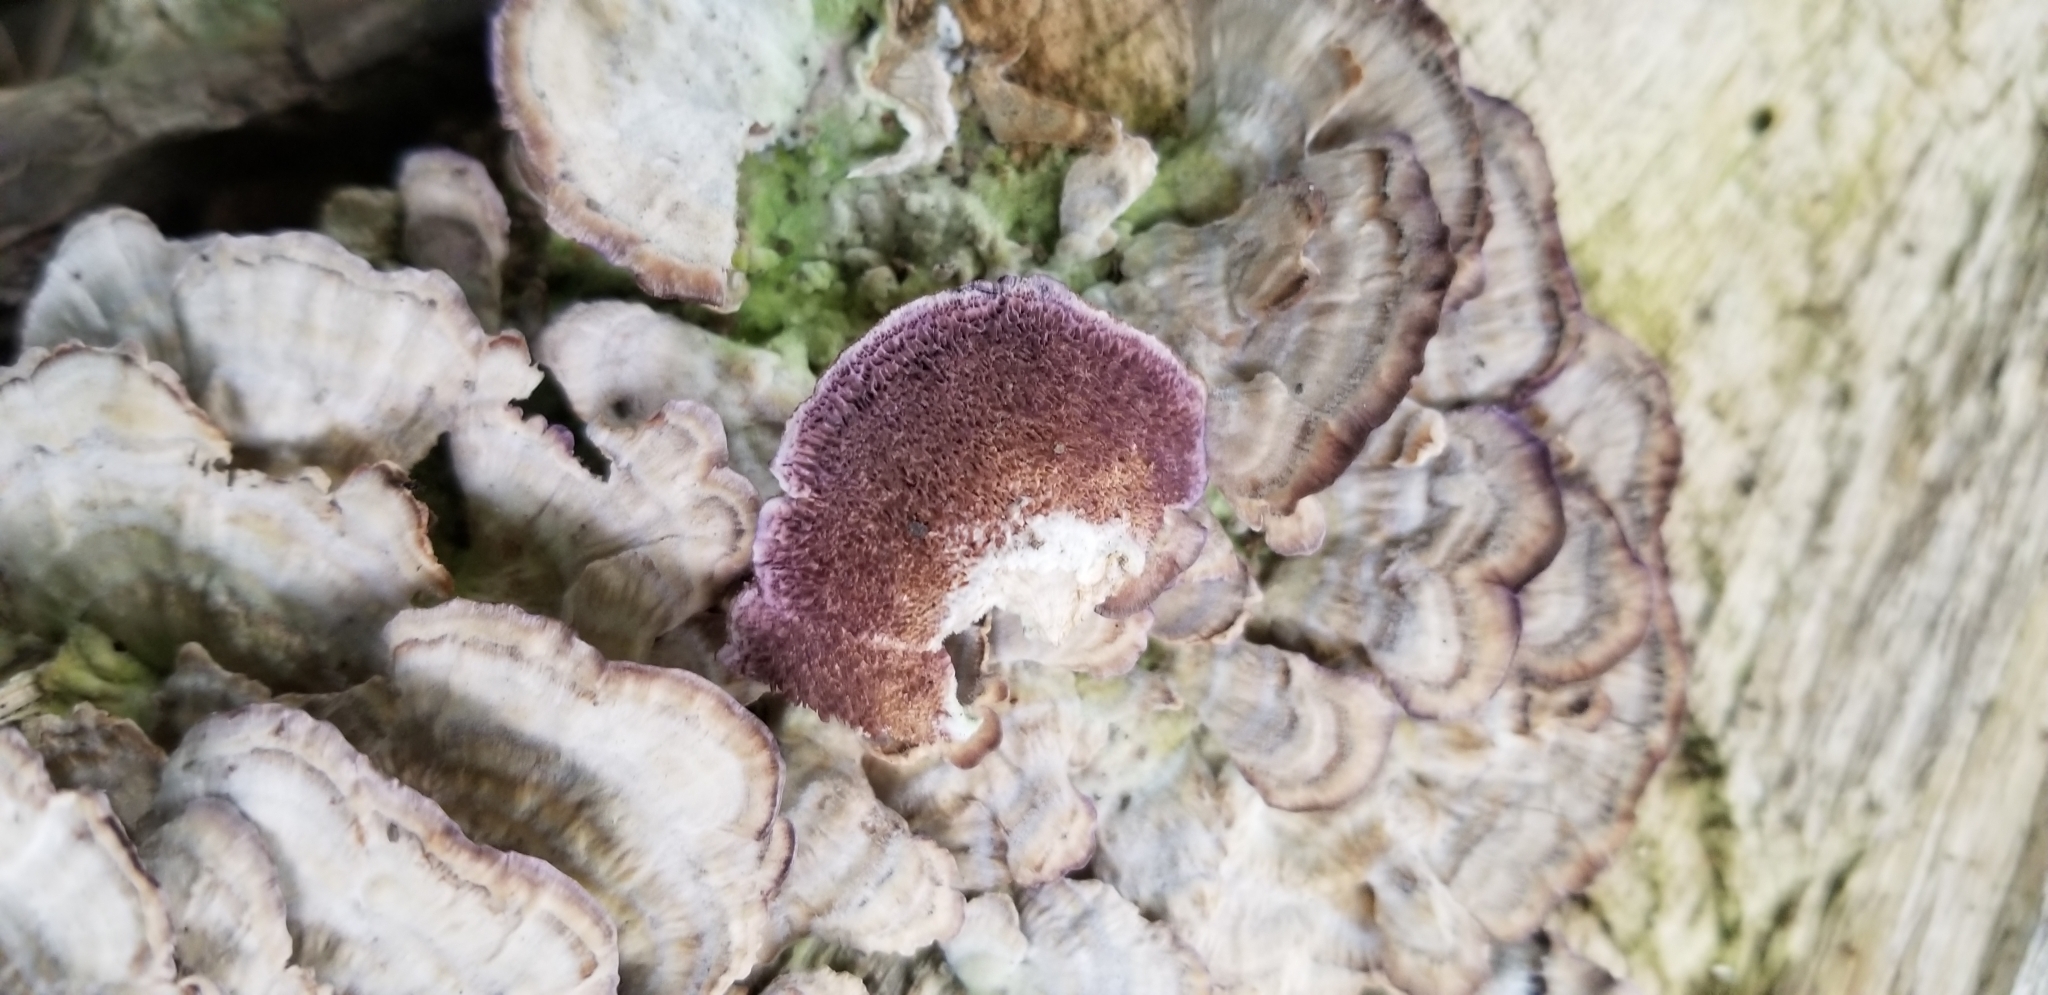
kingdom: Fungi
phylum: Basidiomycota
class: Agaricomycetes
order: Hymenochaetales
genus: Trichaptum
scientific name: Trichaptum biforme
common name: Violet-toothed polypore
